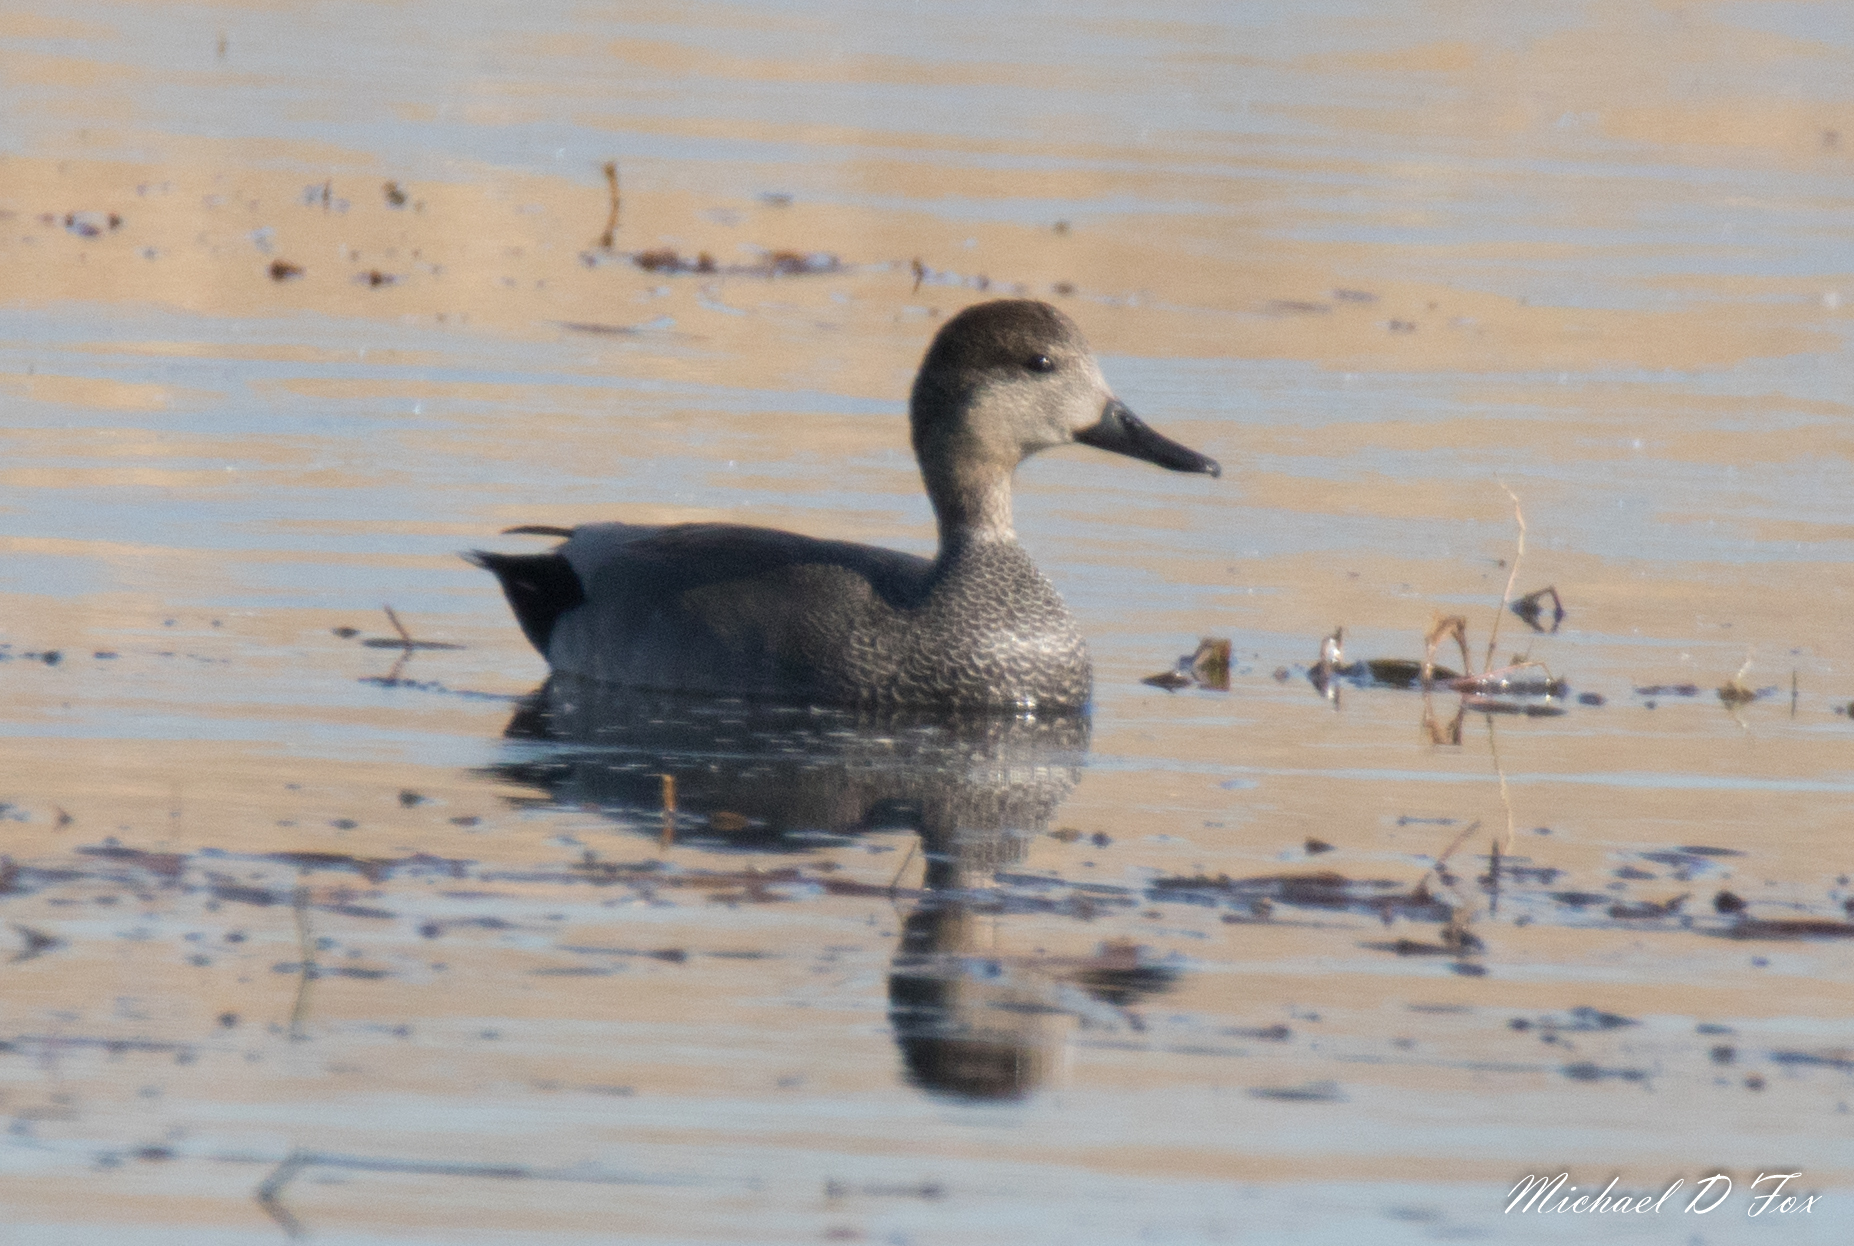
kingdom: Animalia
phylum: Chordata
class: Aves
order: Anseriformes
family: Anatidae
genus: Mareca
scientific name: Mareca strepera
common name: Gadwall
